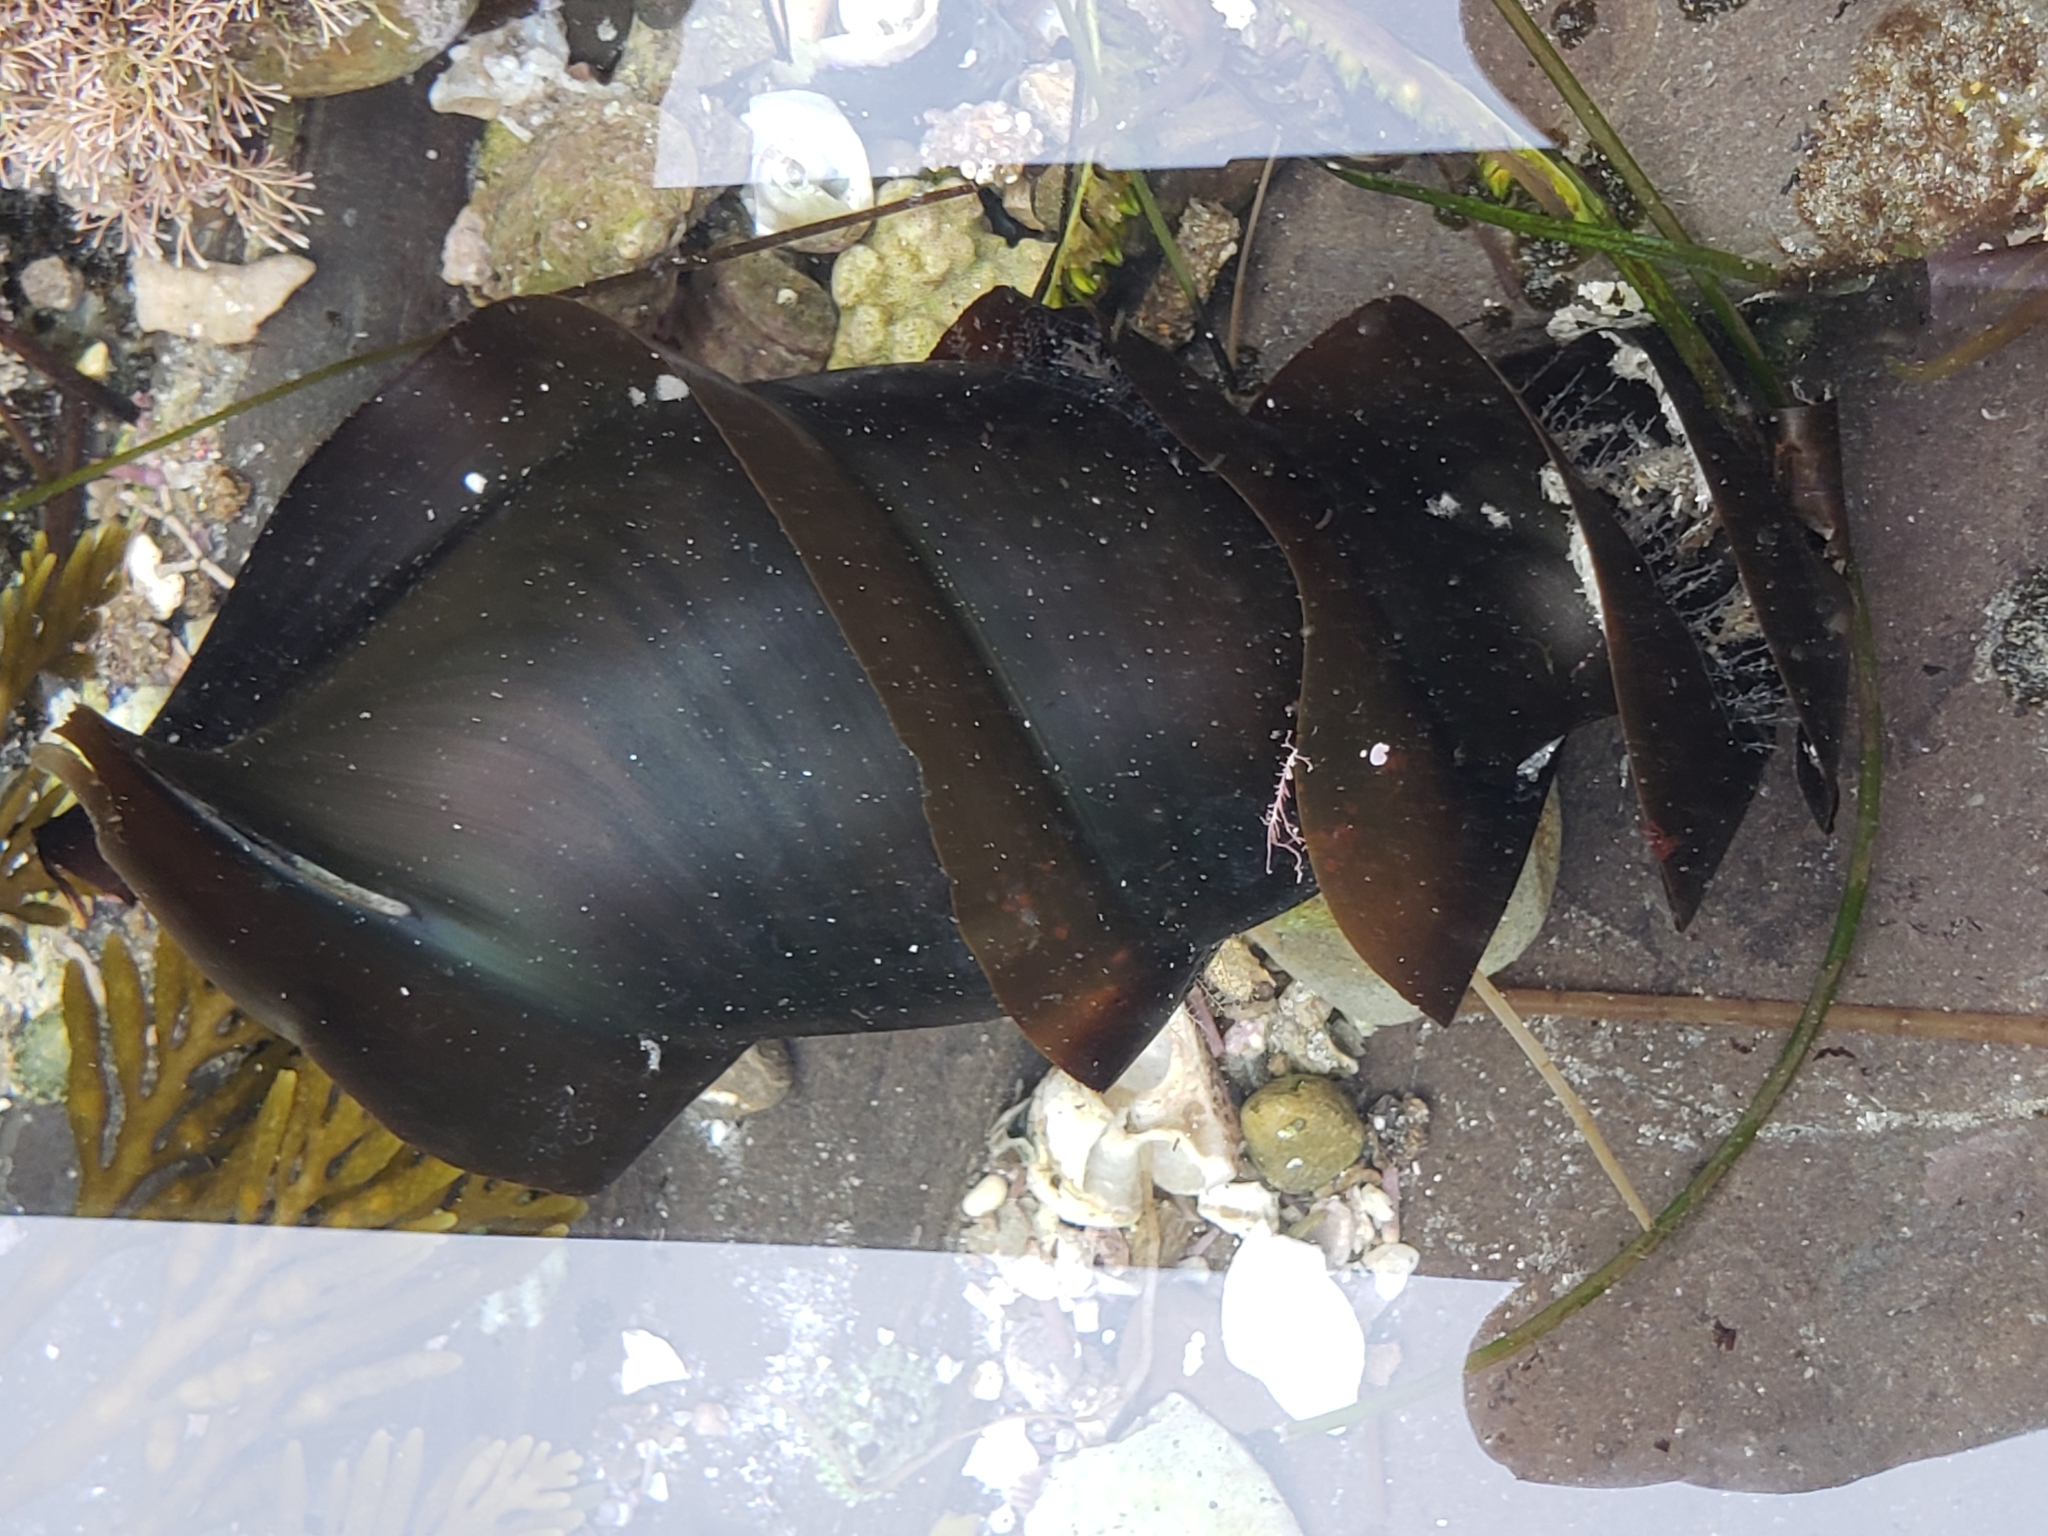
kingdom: Animalia
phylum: Chordata
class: Elasmobranchii
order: Heterodontiformes
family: Heterodontidae
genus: Heterodontus
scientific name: Heterodontus francisci
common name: Horn shark
